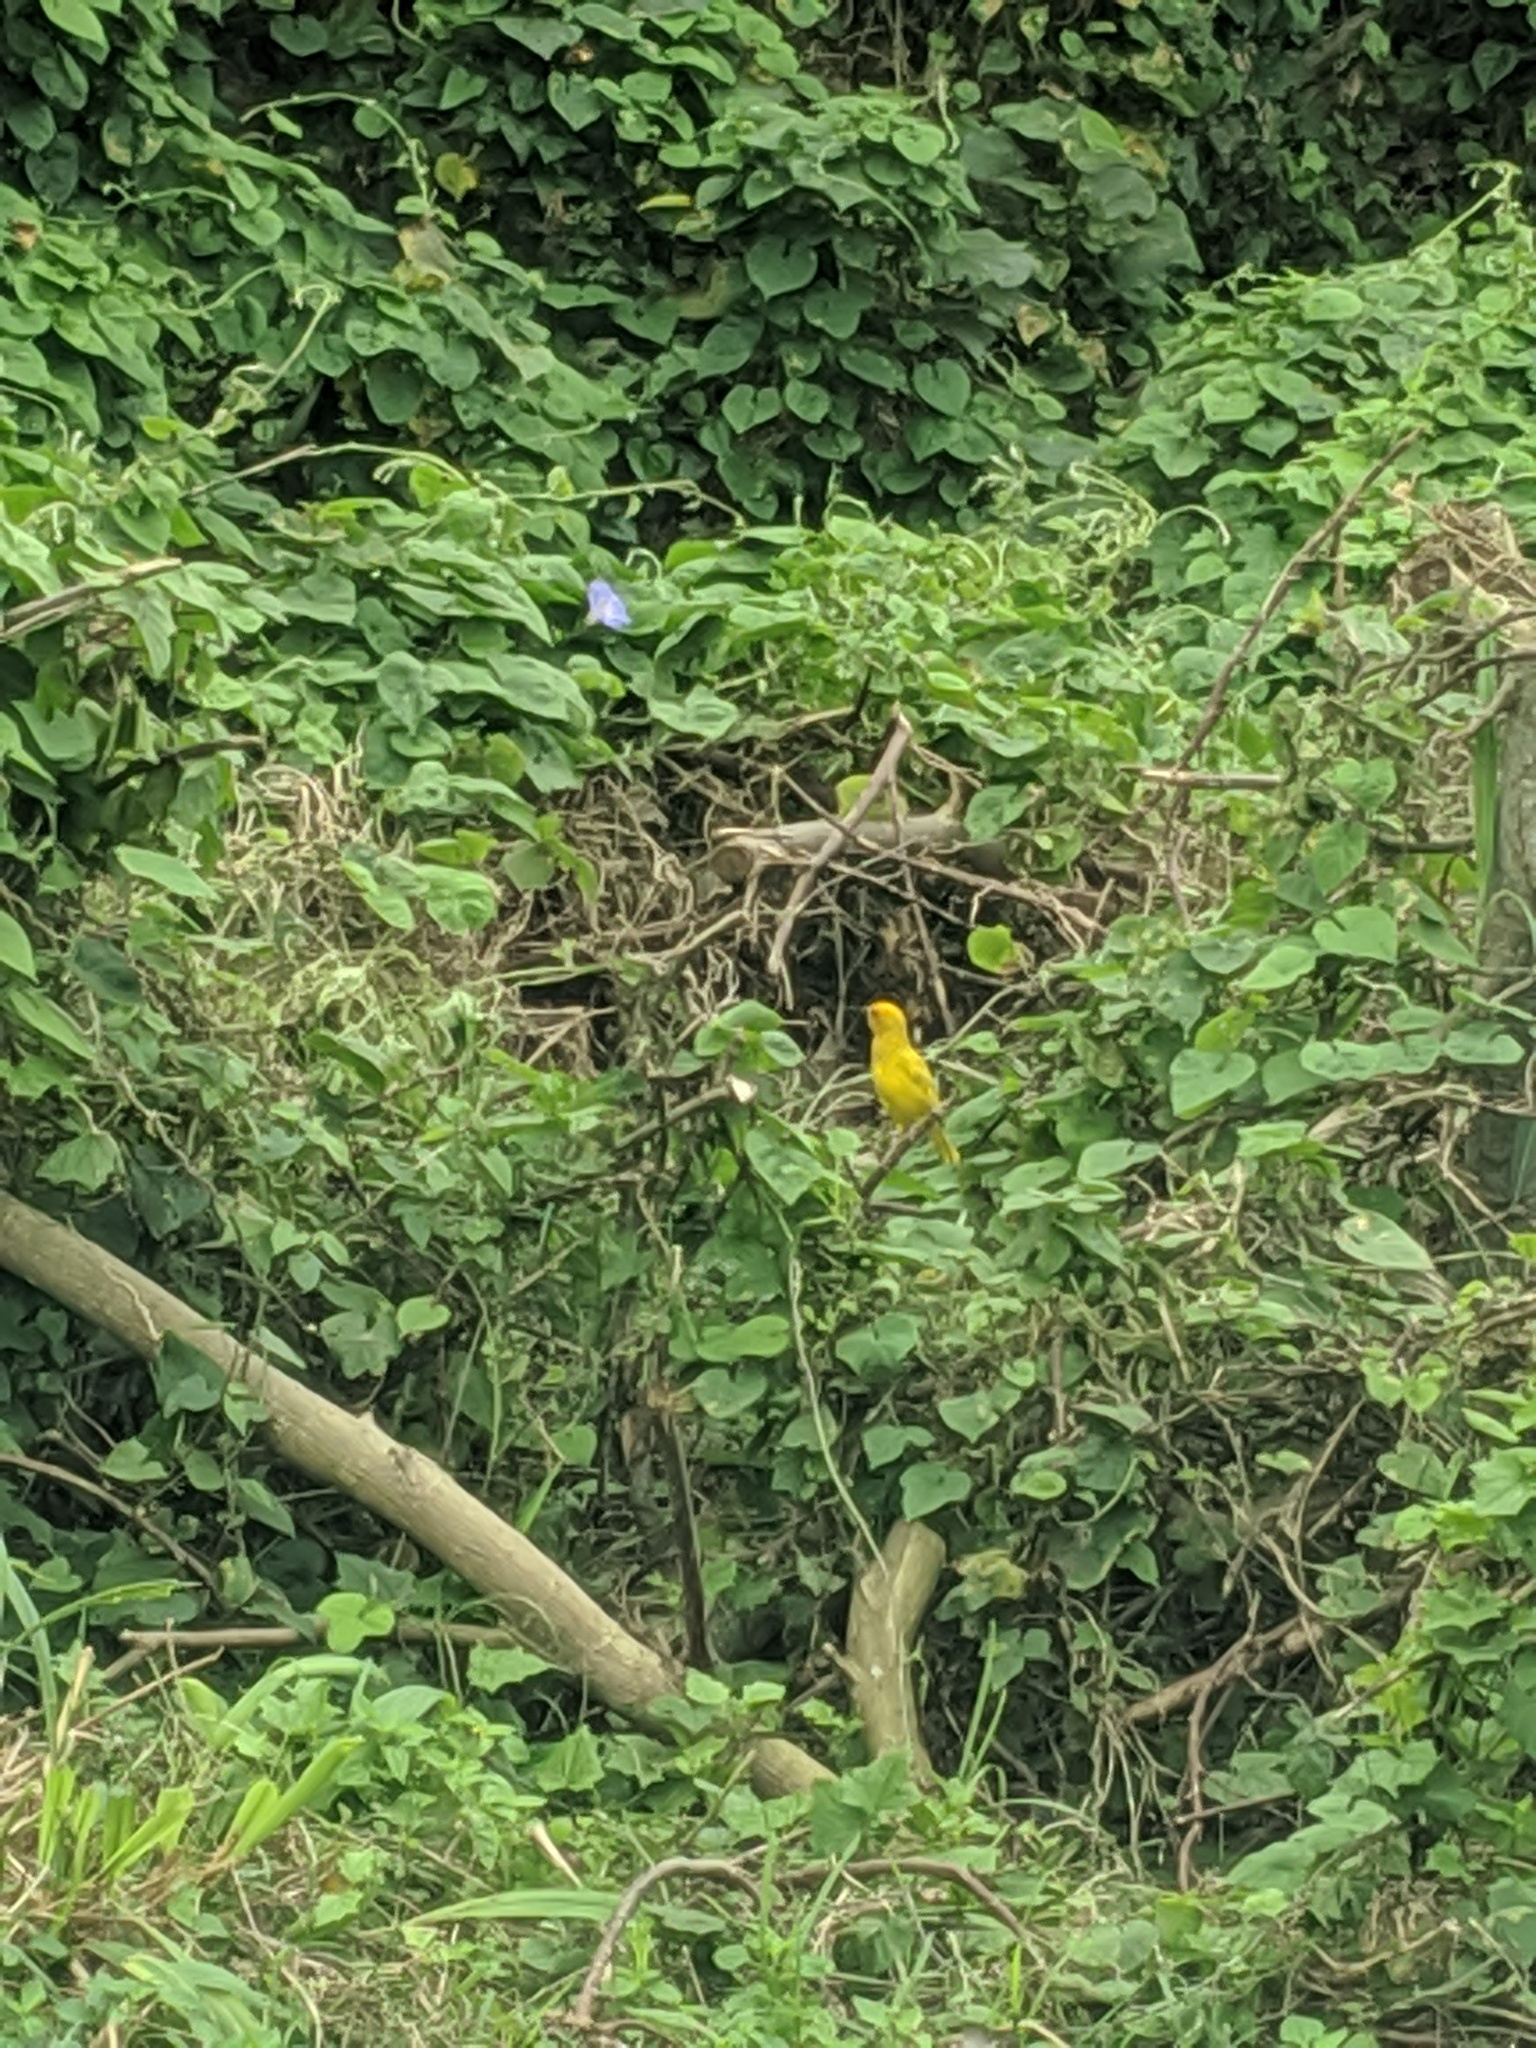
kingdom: Animalia
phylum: Chordata
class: Aves
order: Passeriformes
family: Ploceidae
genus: Ploceus
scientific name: Ploceus subaureus
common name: Yellow weaver
